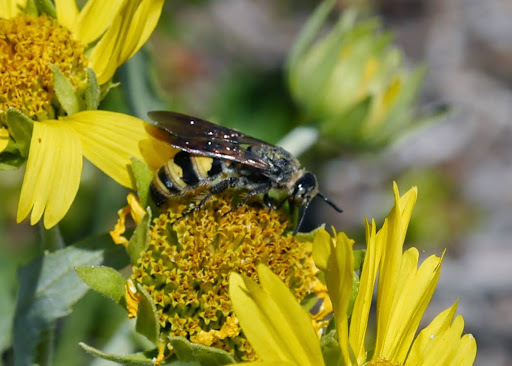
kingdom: Animalia
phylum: Arthropoda
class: Insecta
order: Hymenoptera
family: Scoliidae
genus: Dielis
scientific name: Dielis
